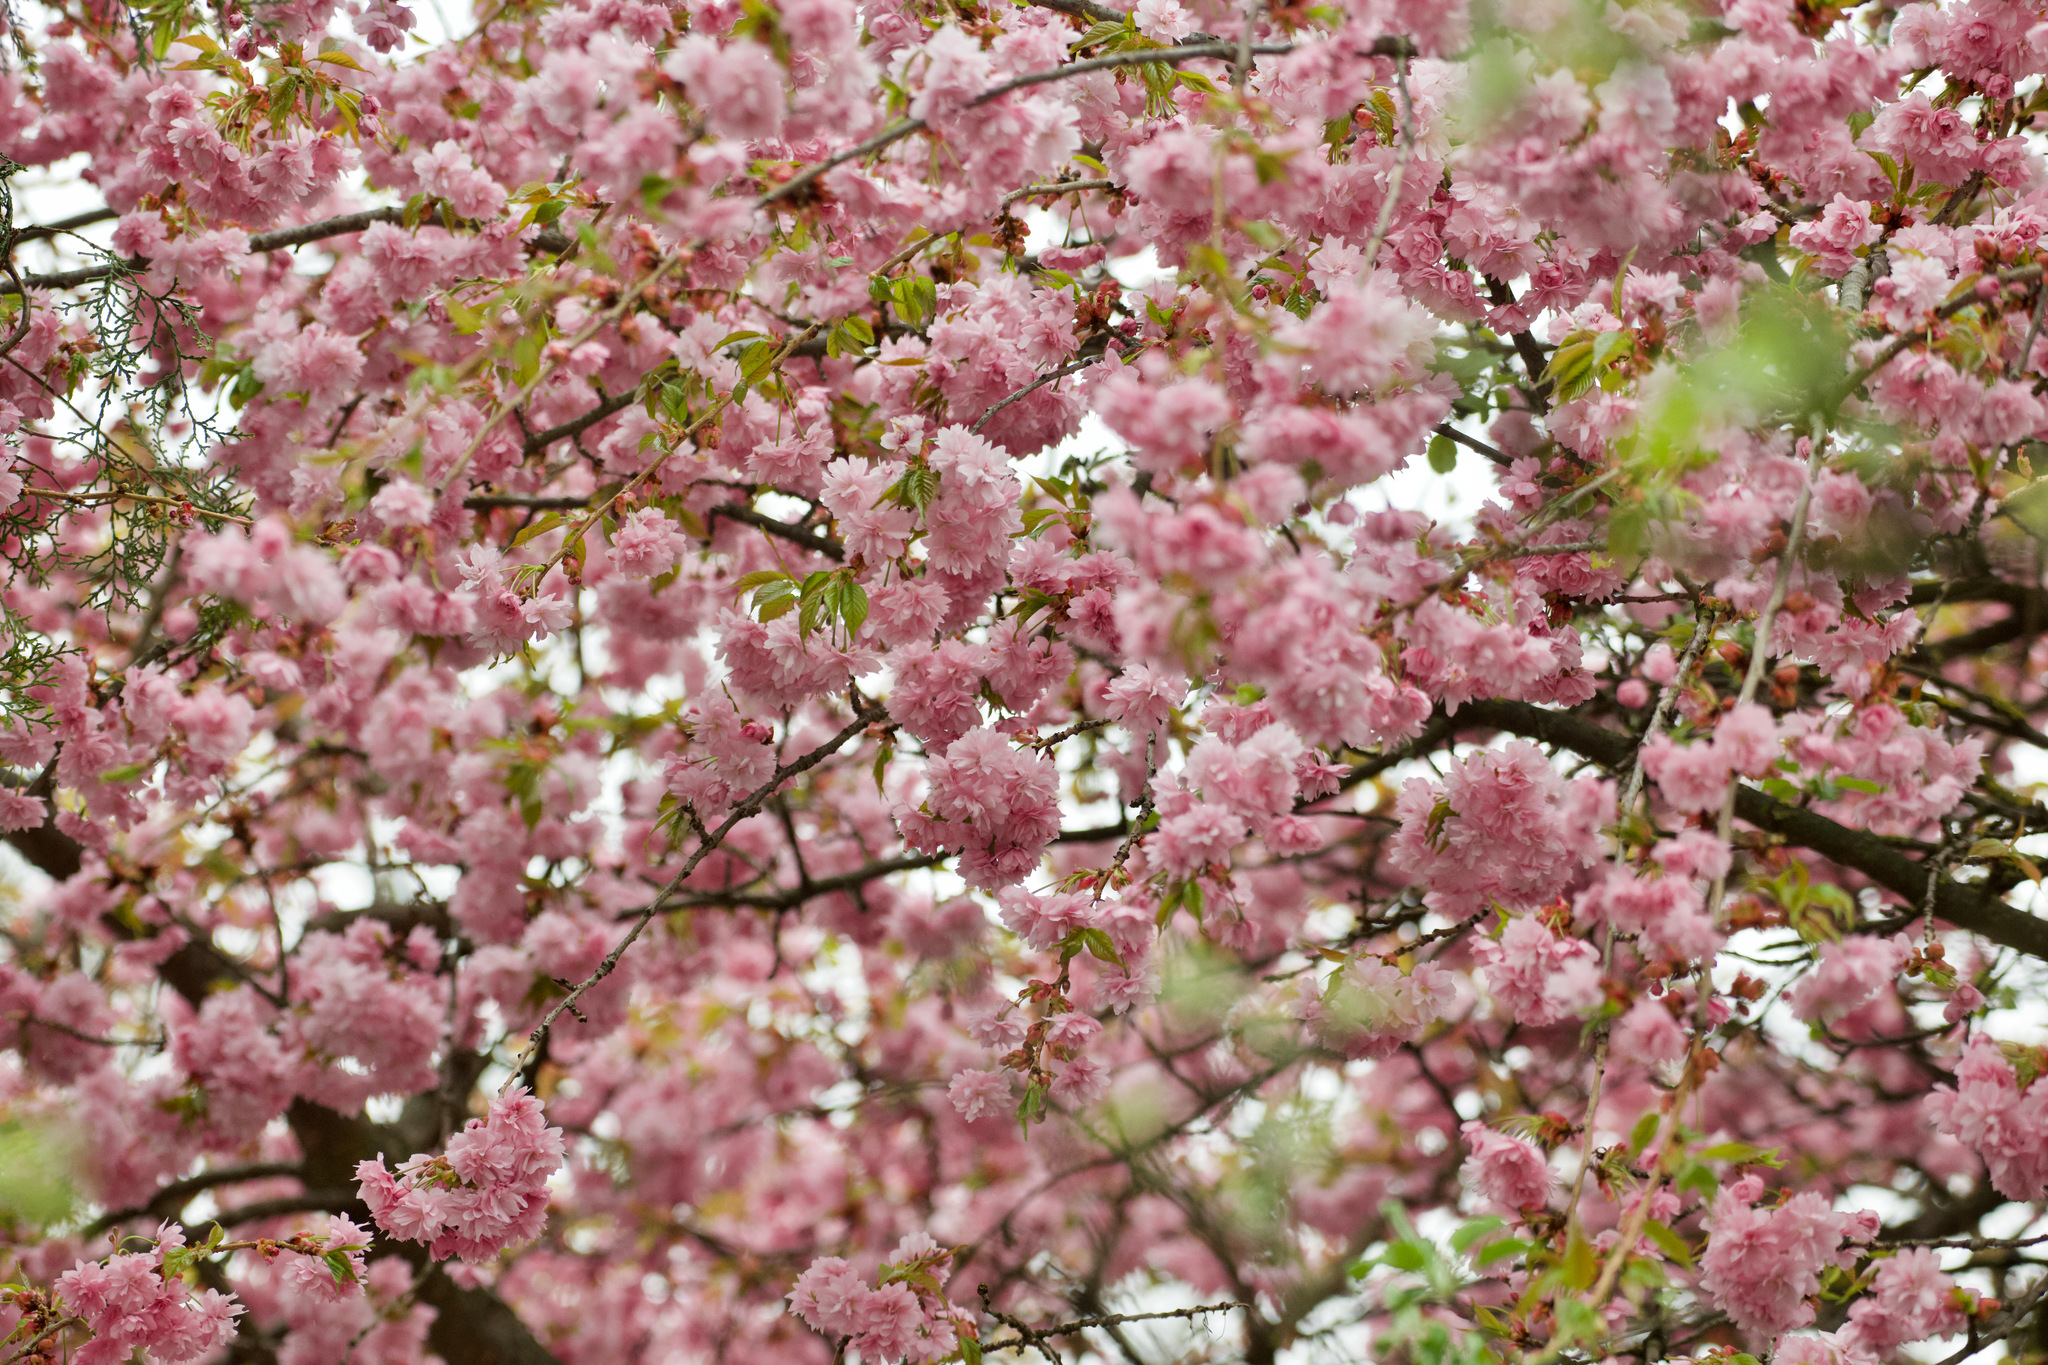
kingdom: Plantae
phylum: Tracheophyta
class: Magnoliopsida
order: Rosales
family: Rosaceae
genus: Prunus
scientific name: Prunus serrulata
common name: Japanese cherry
